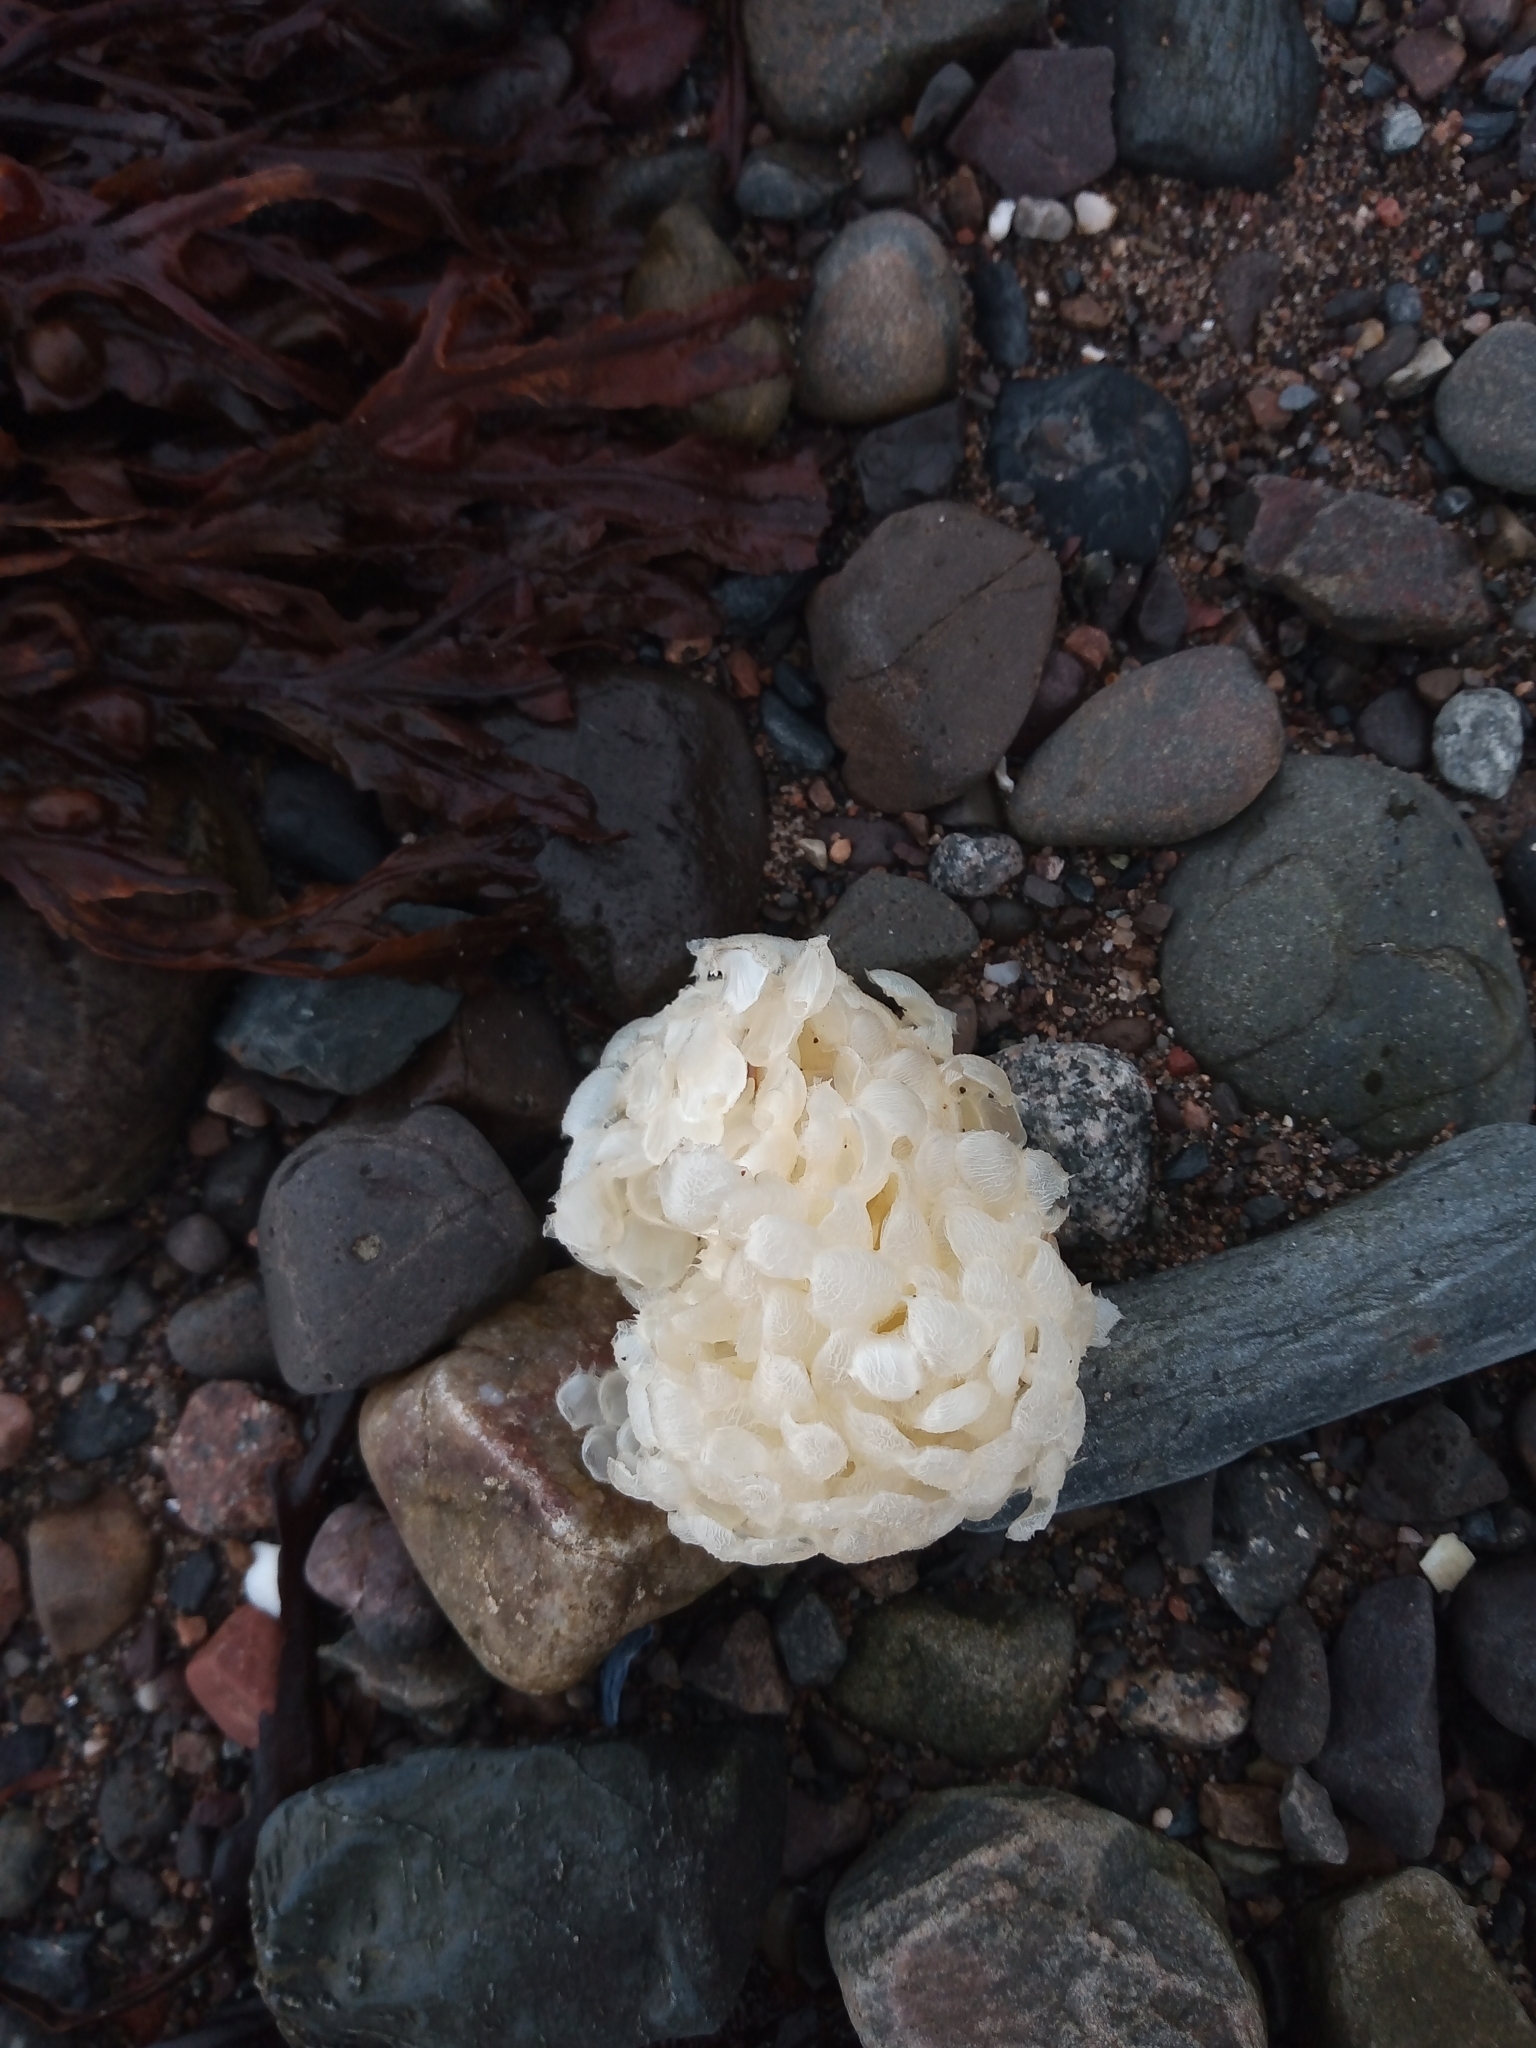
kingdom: Animalia
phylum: Mollusca
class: Gastropoda
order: Neogastropoda
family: Buccinidae
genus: Buccinum
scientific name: Buccinum undatum
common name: Common whelk
